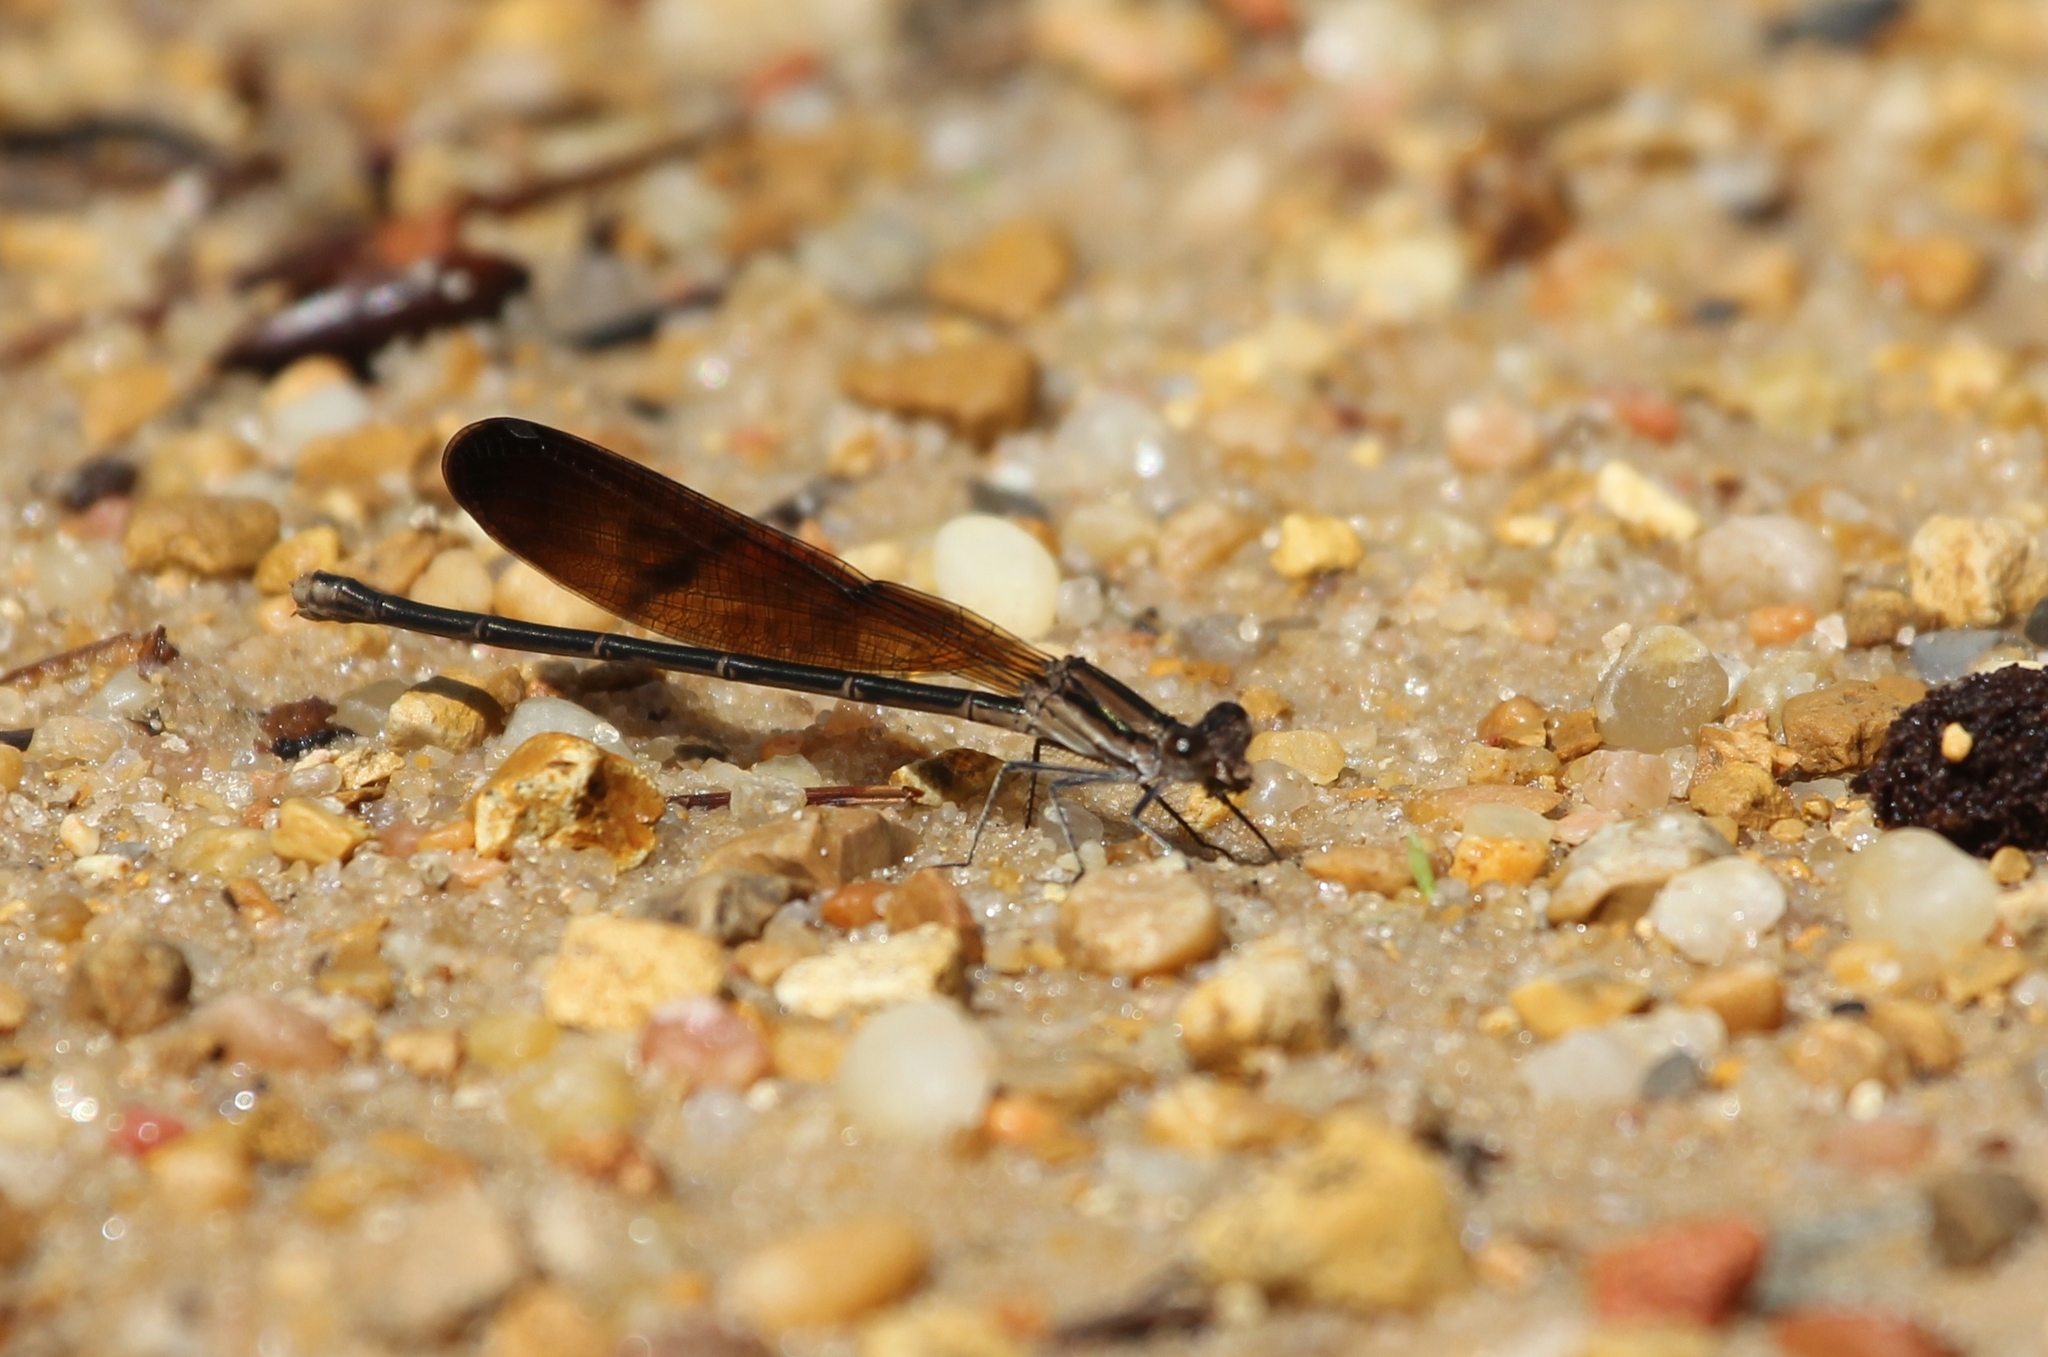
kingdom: Animalia
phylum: Arthropoda
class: Insecta
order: Odonata
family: Coenagrionidae
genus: Argia
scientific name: Argia fumipennis
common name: Variable dancer
